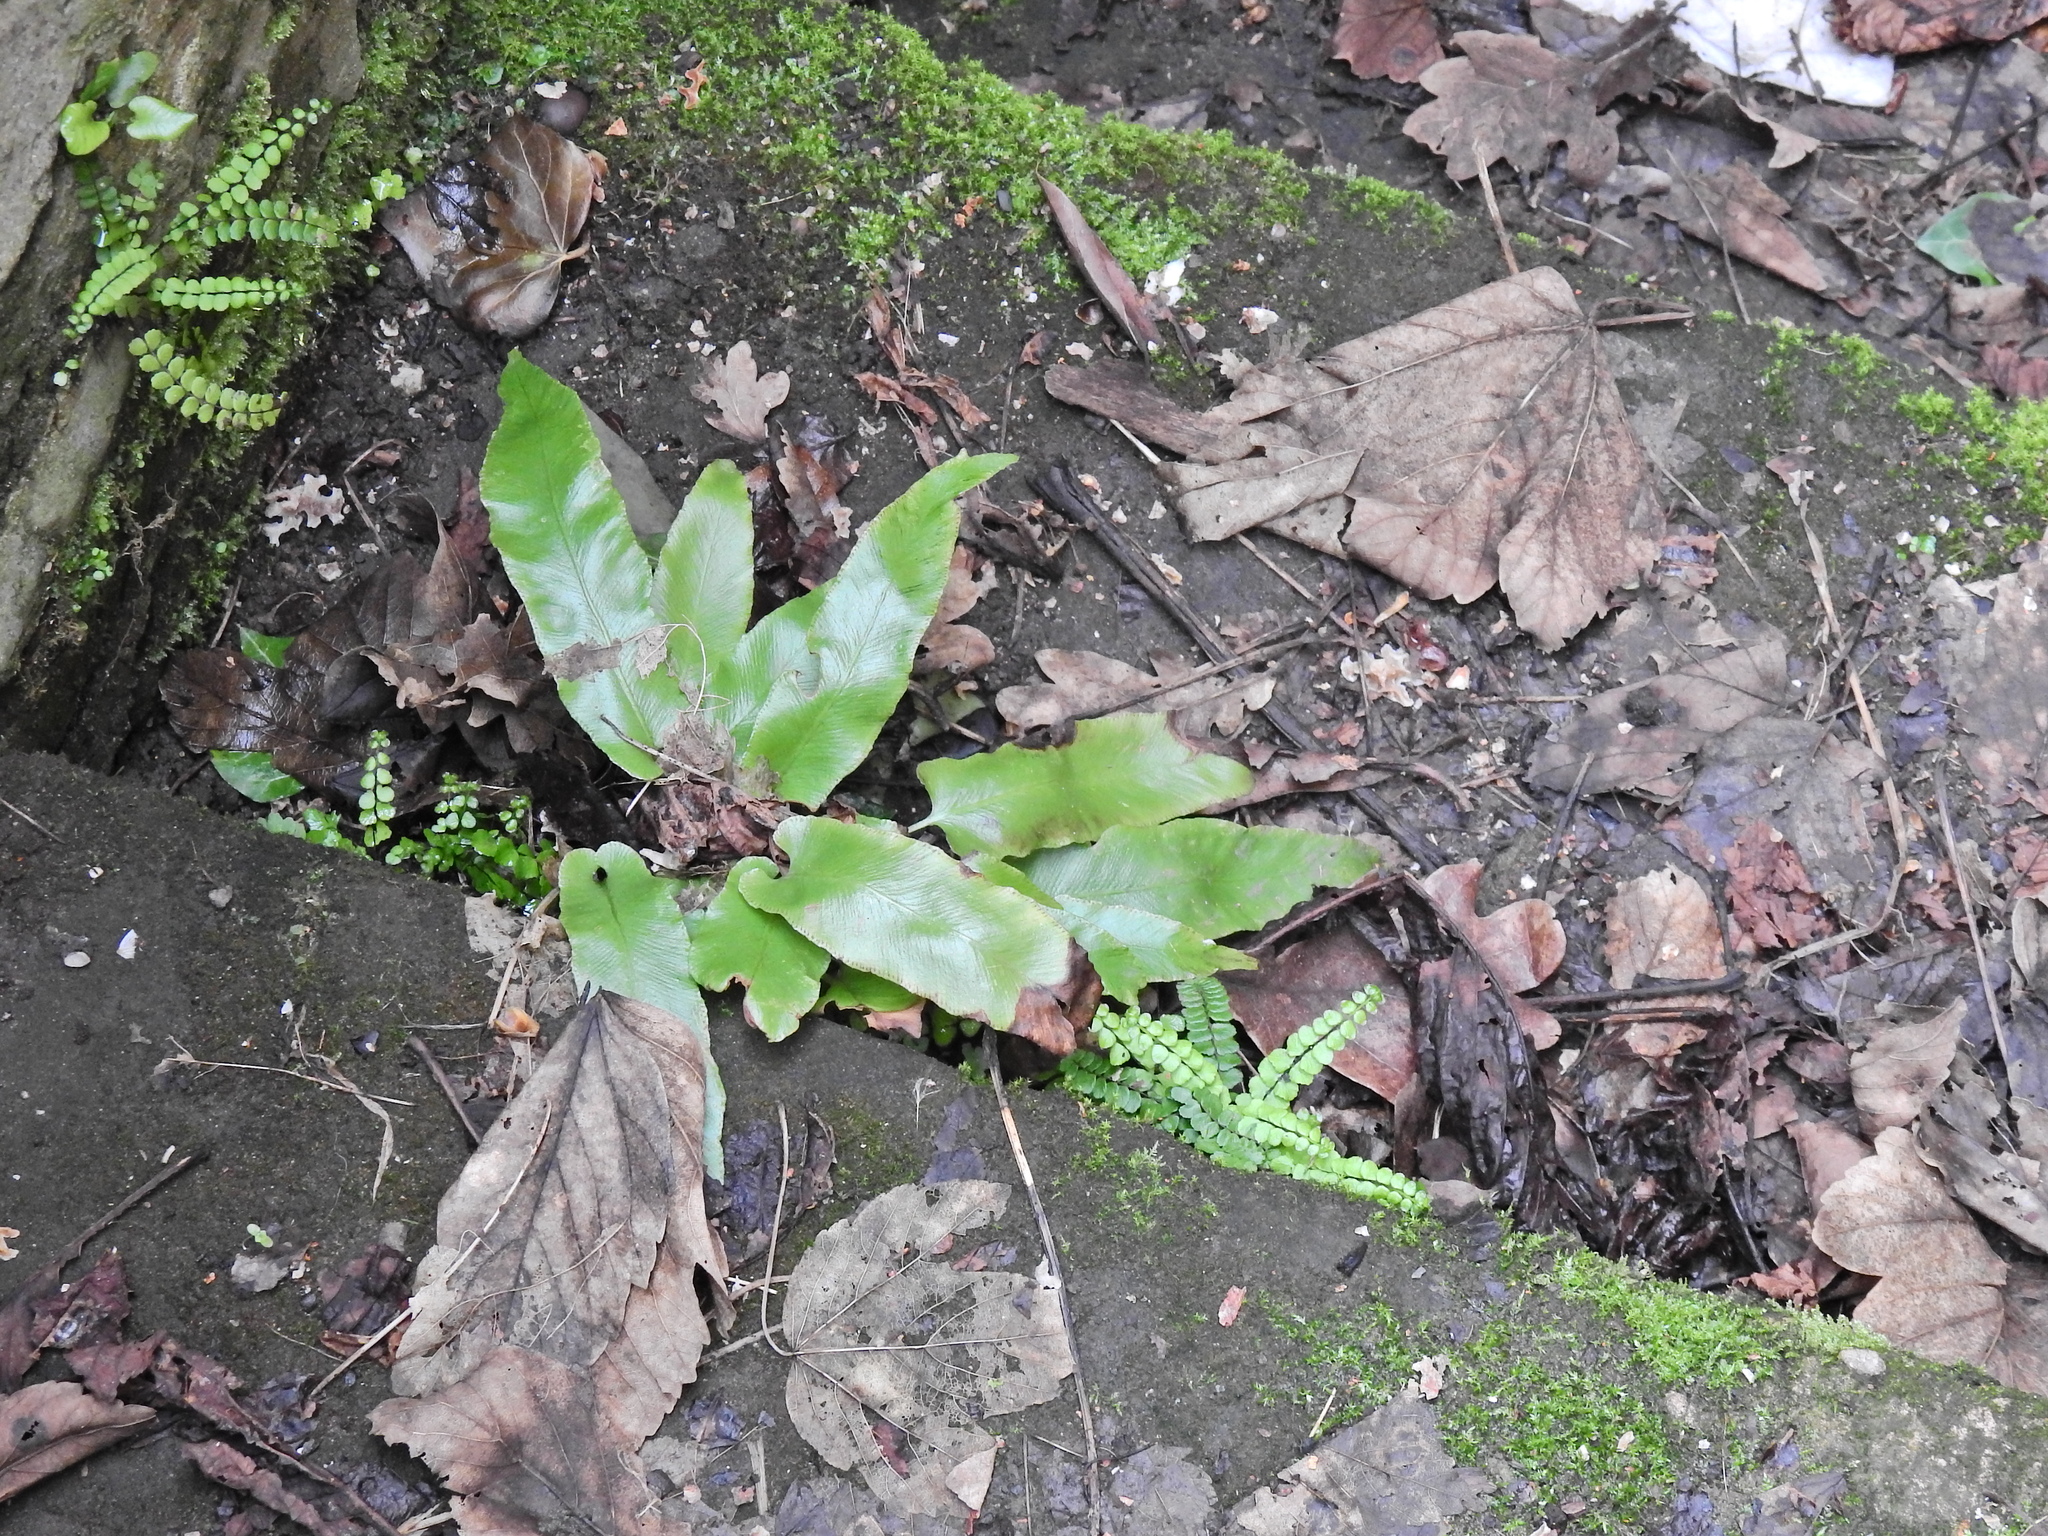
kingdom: Plantae
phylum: Tracheophyta
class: Polypodiopsida
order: Polypodiales
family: Aspleniaceae
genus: Asplenium
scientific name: Asplenium scolopendrium
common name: Hart's-tongue fern
